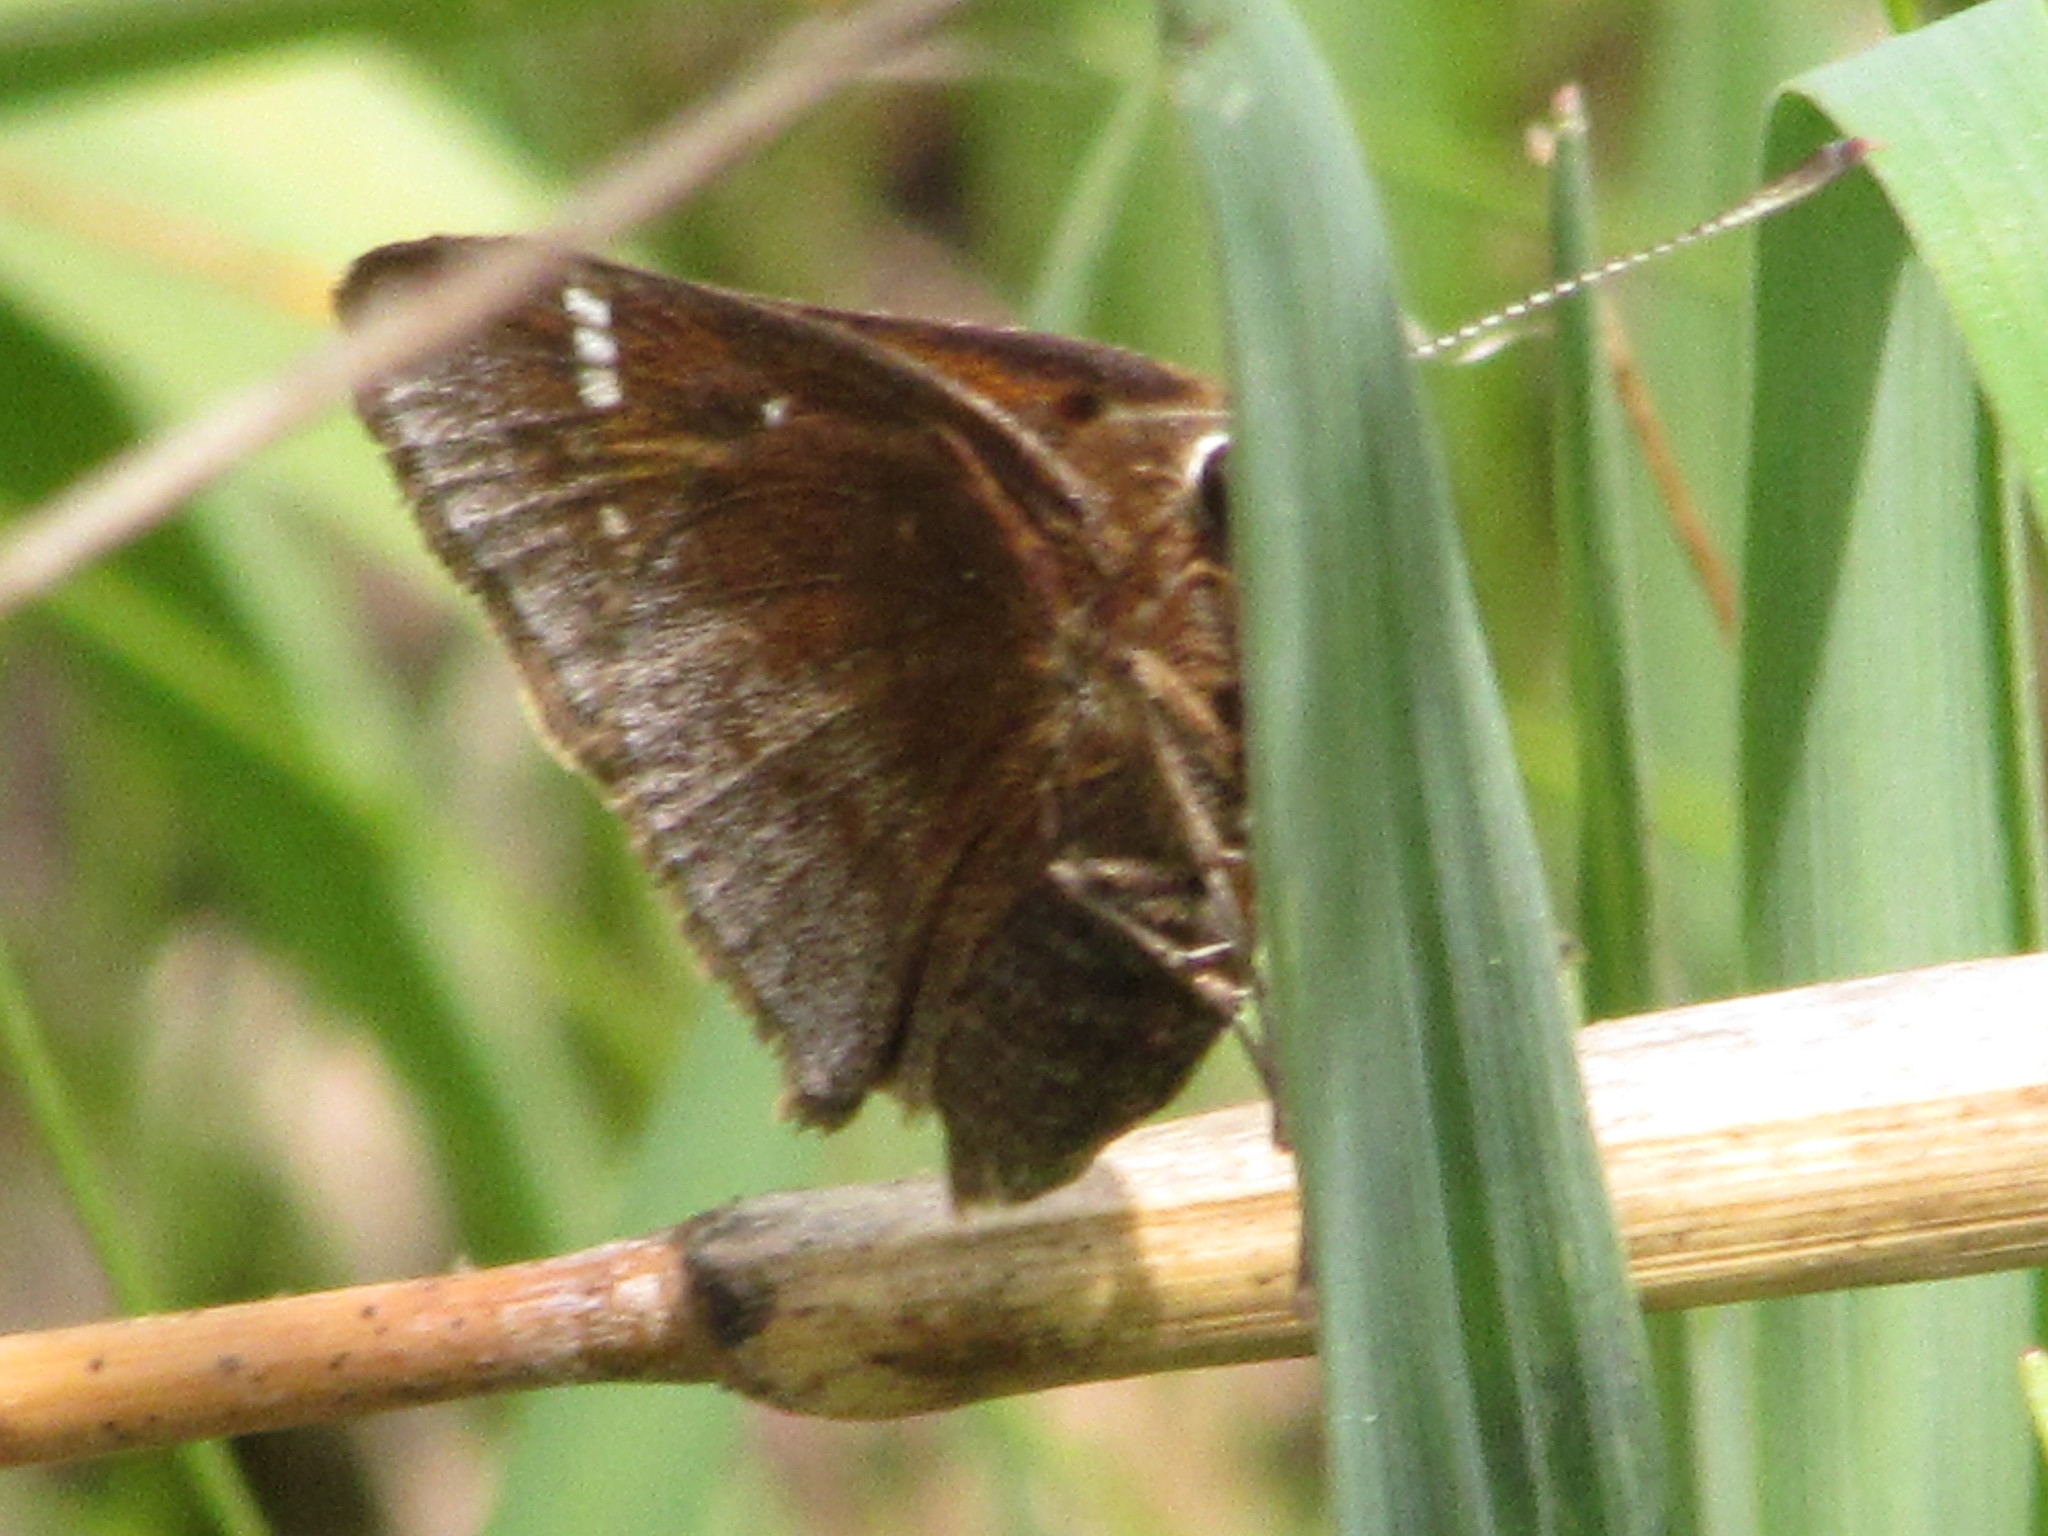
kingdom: Animalia
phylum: Arthropoda
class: Insecta
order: Lepidoptera
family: Hesperiidae
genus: Atrytonopsis
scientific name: Atrytonopsis hianna
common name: Dusted skipper
